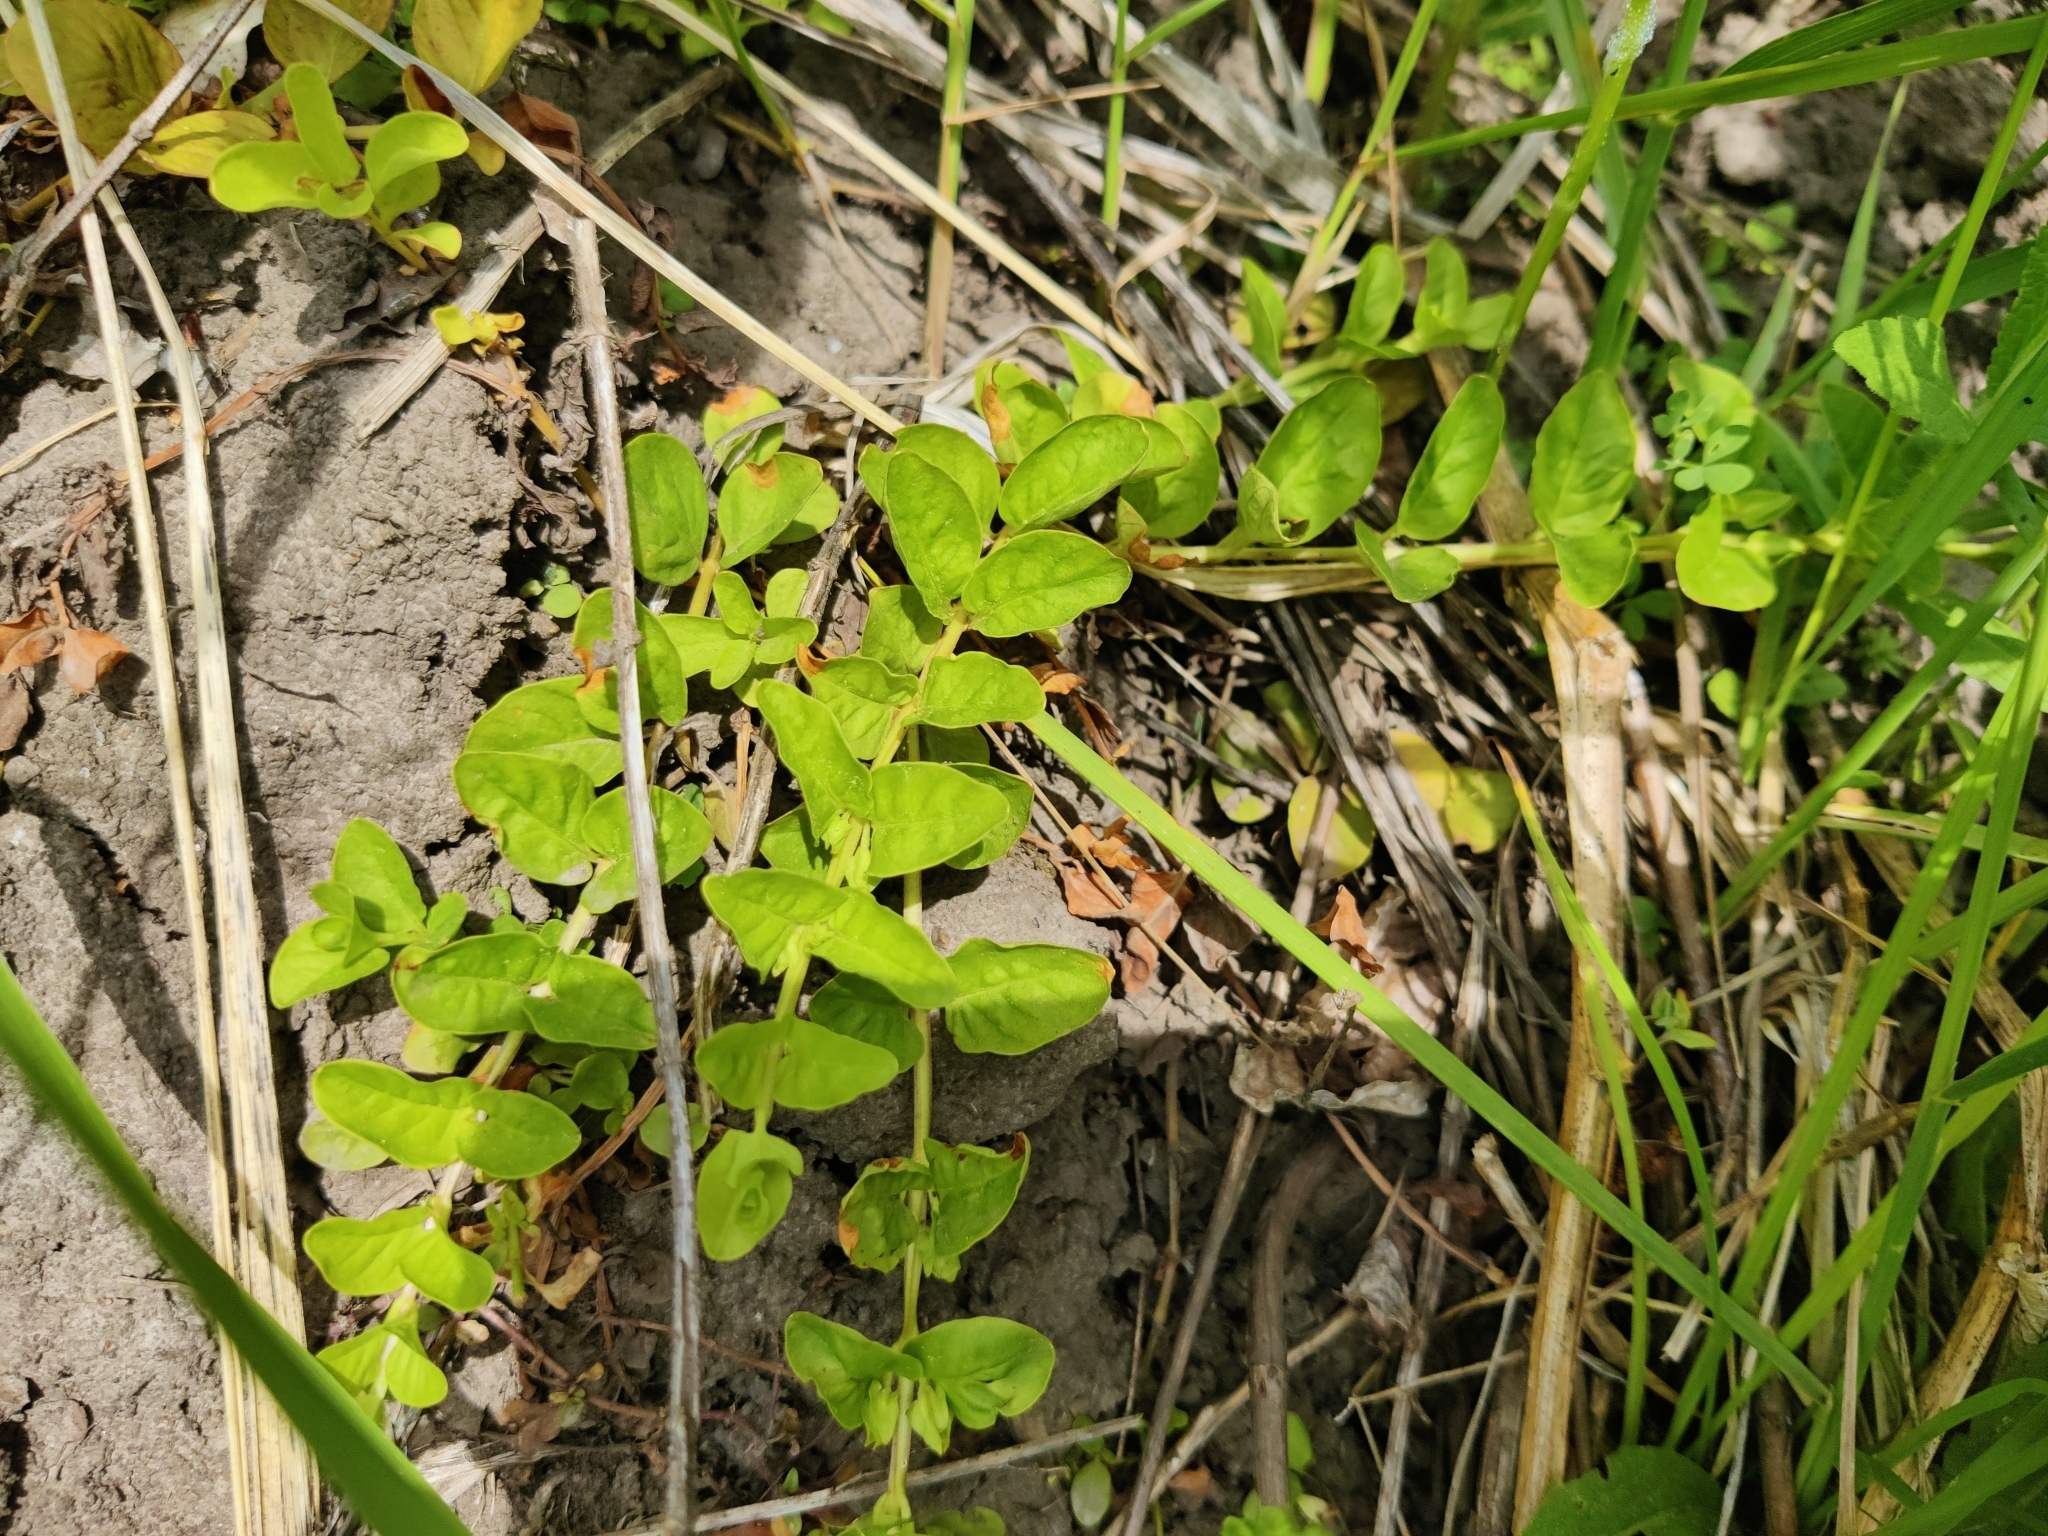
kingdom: Plantae
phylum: Tracheophyta
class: Magnoliopsida
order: Ericales
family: Primulaceae
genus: Lysimachia
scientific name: Lysimachia nummularia
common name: Moneywort
